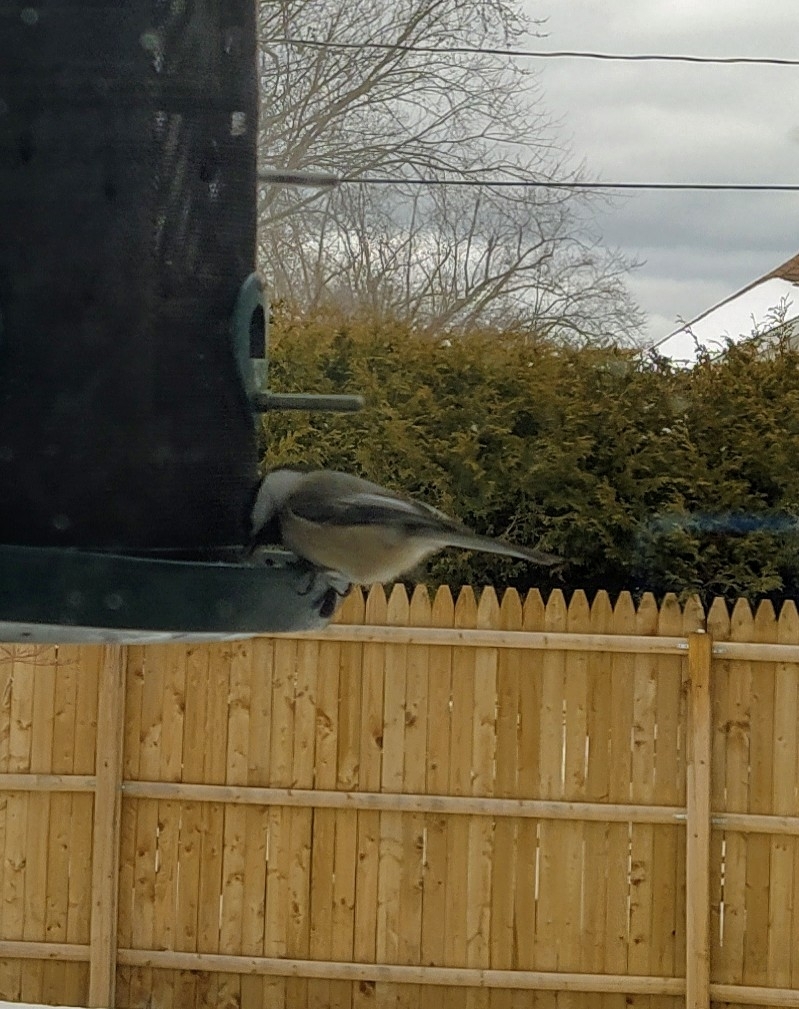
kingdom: Animalia
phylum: Chordata
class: Aves
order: Passeriformes
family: Paridae
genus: Poecile
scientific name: Poecile atricapillus
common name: Black-capped chickadee
